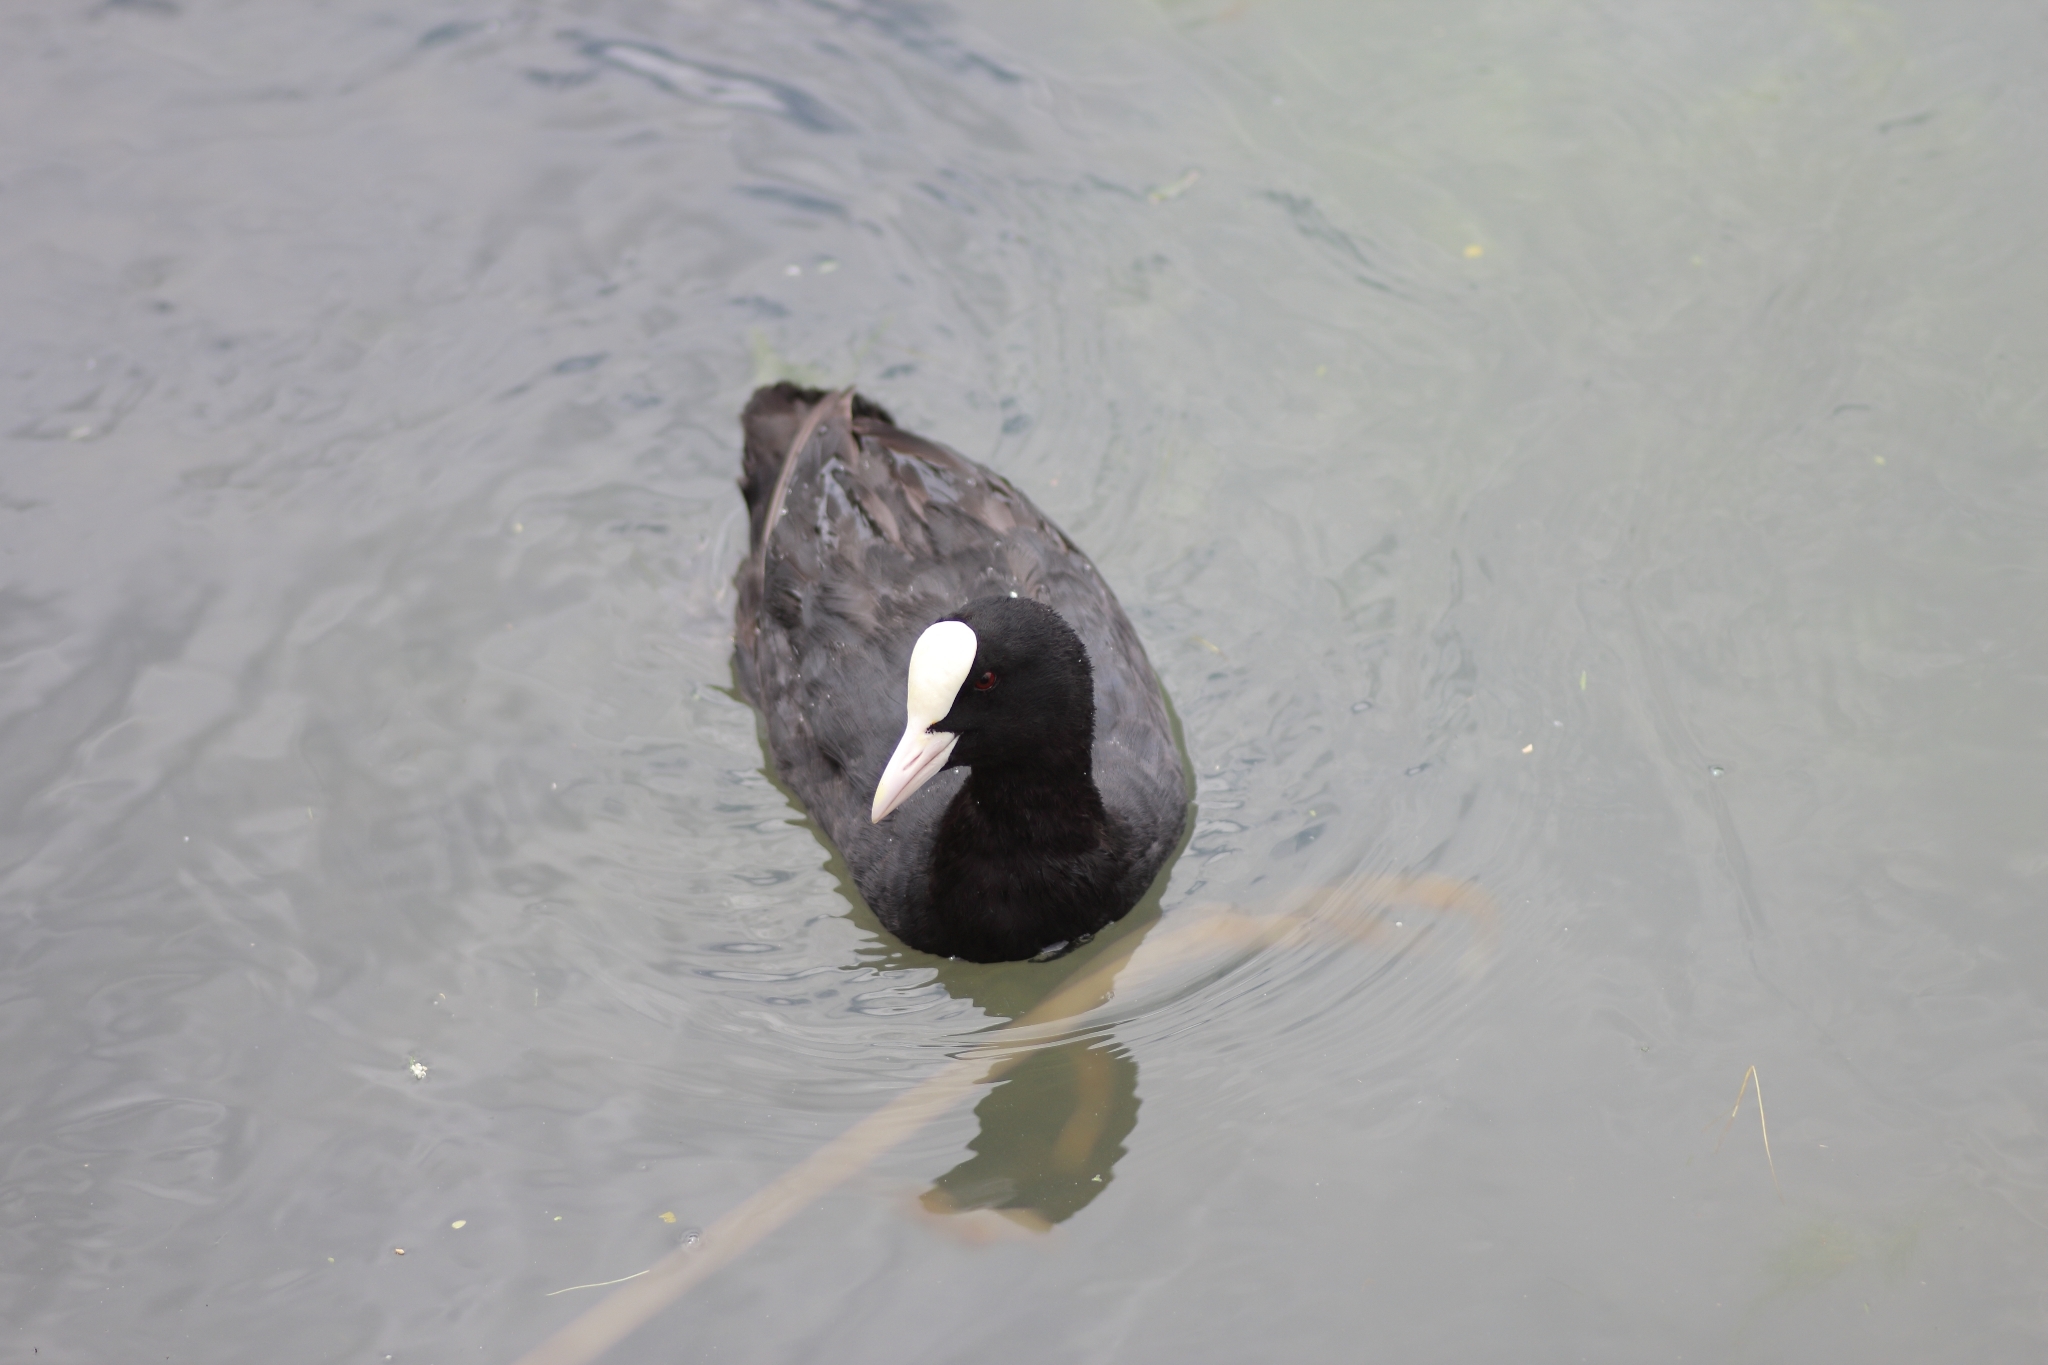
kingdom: Animalia
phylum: Chordata
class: Aves
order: Gruiformes
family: Rallidae
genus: Fulica
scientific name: Fulica atra
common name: Eurasian coot
